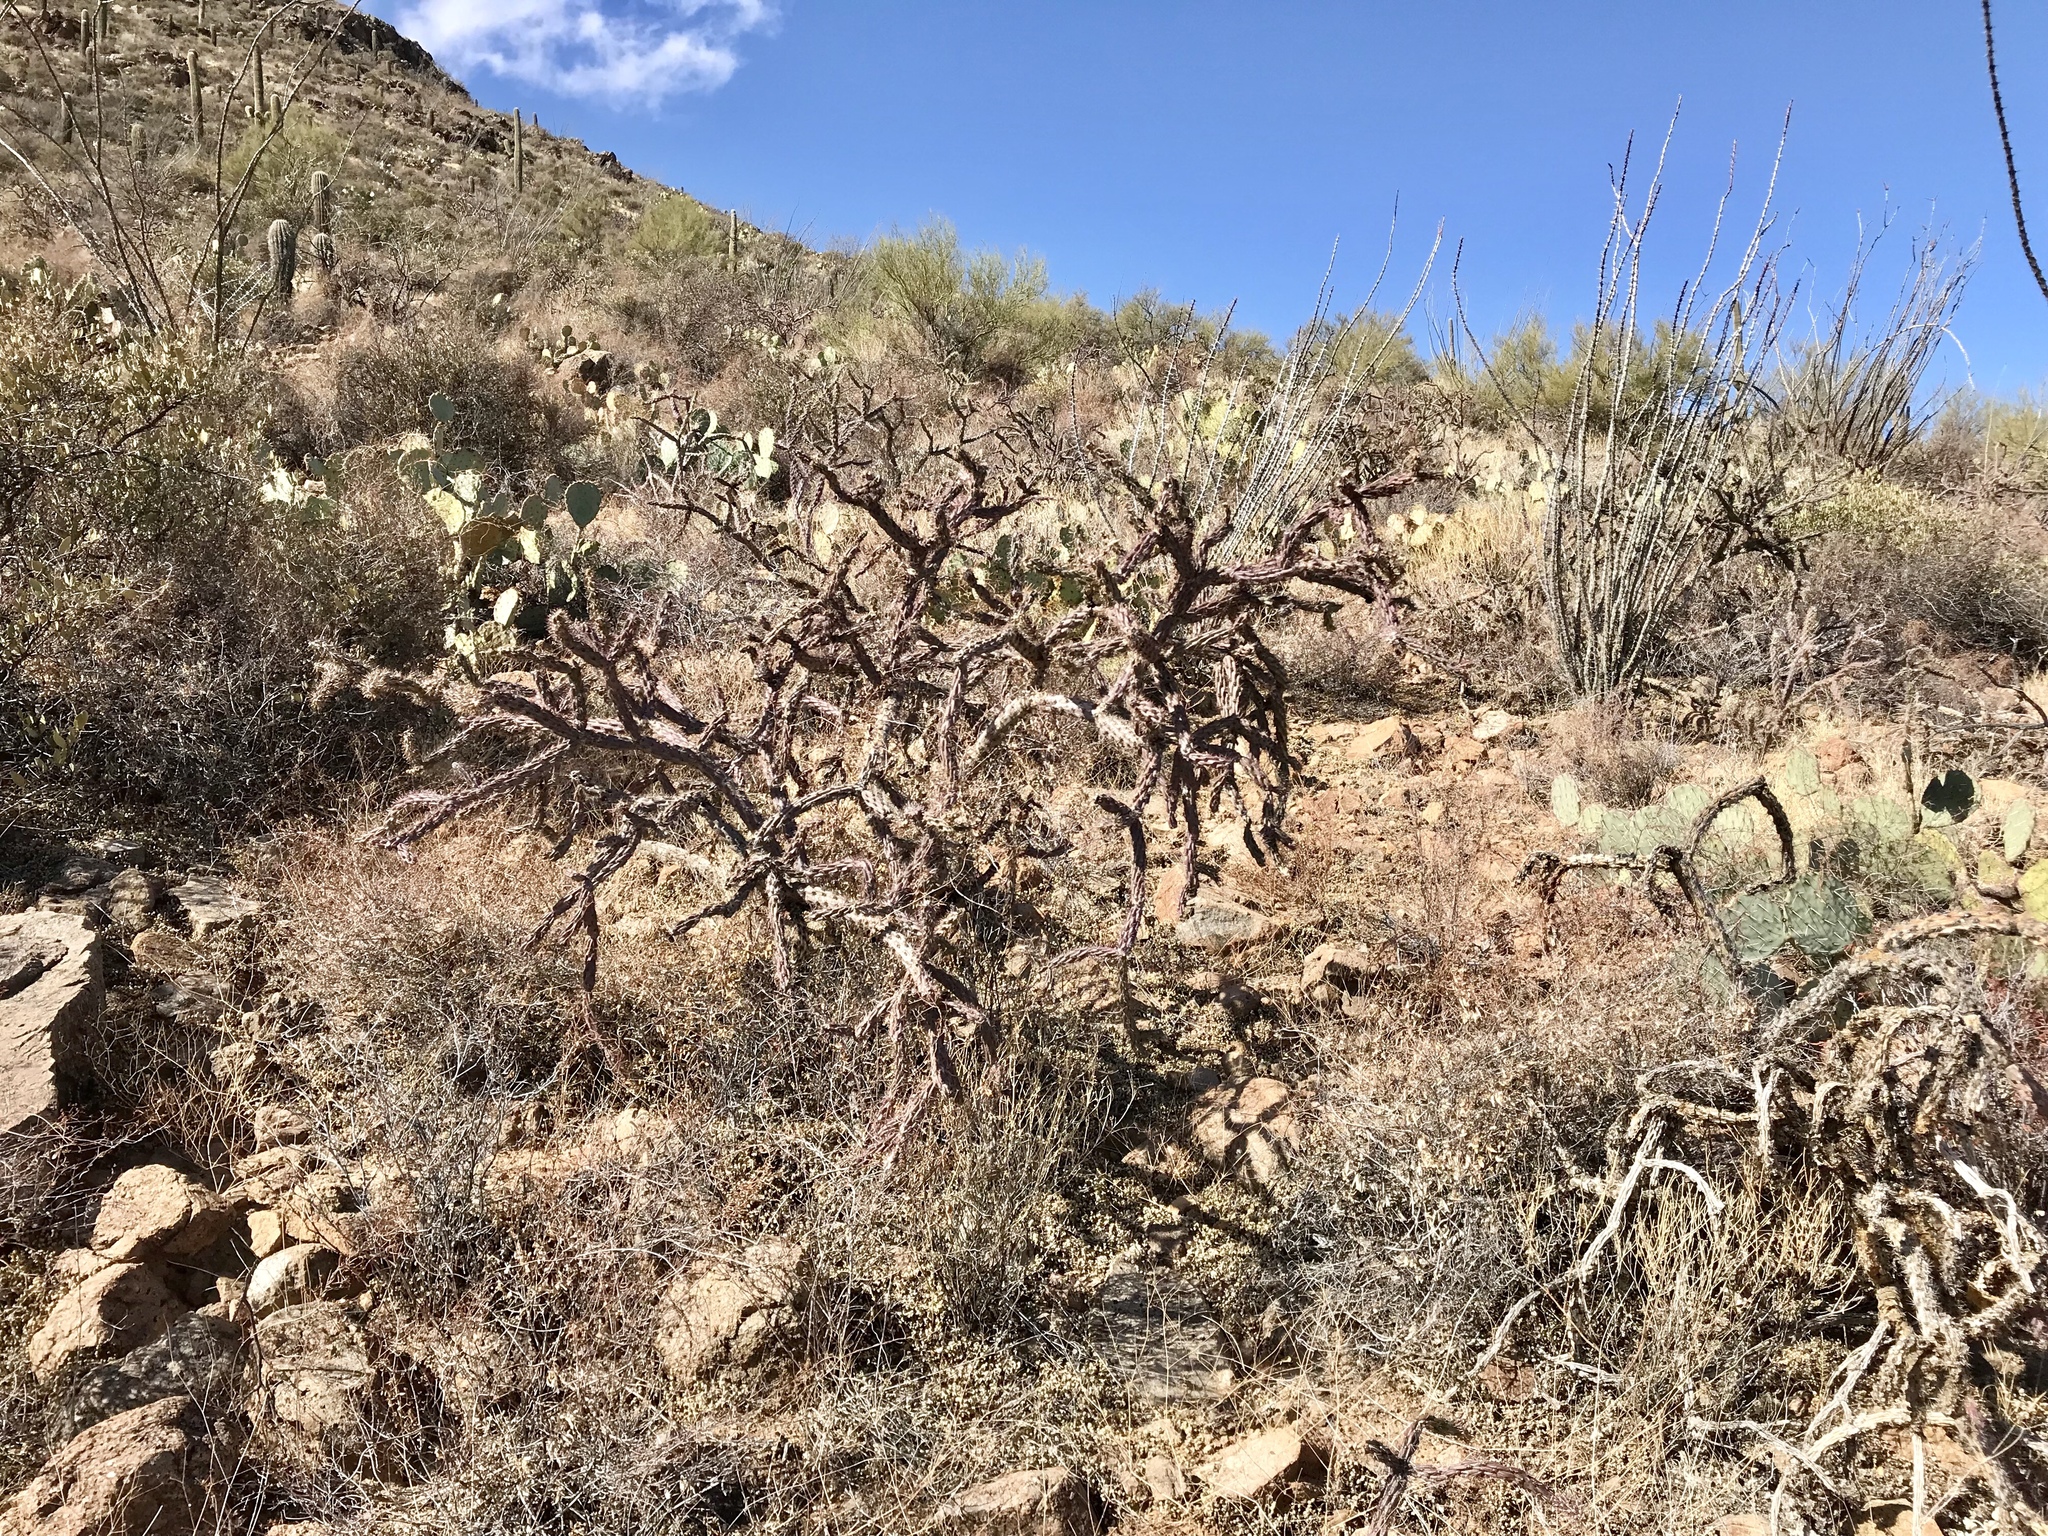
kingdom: Plantae
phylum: Tracheophyta
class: Magnoliopsida
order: Caryophyllales
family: Cactaceae
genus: Cylindropuntia
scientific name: Cylindropuntia thurberi
